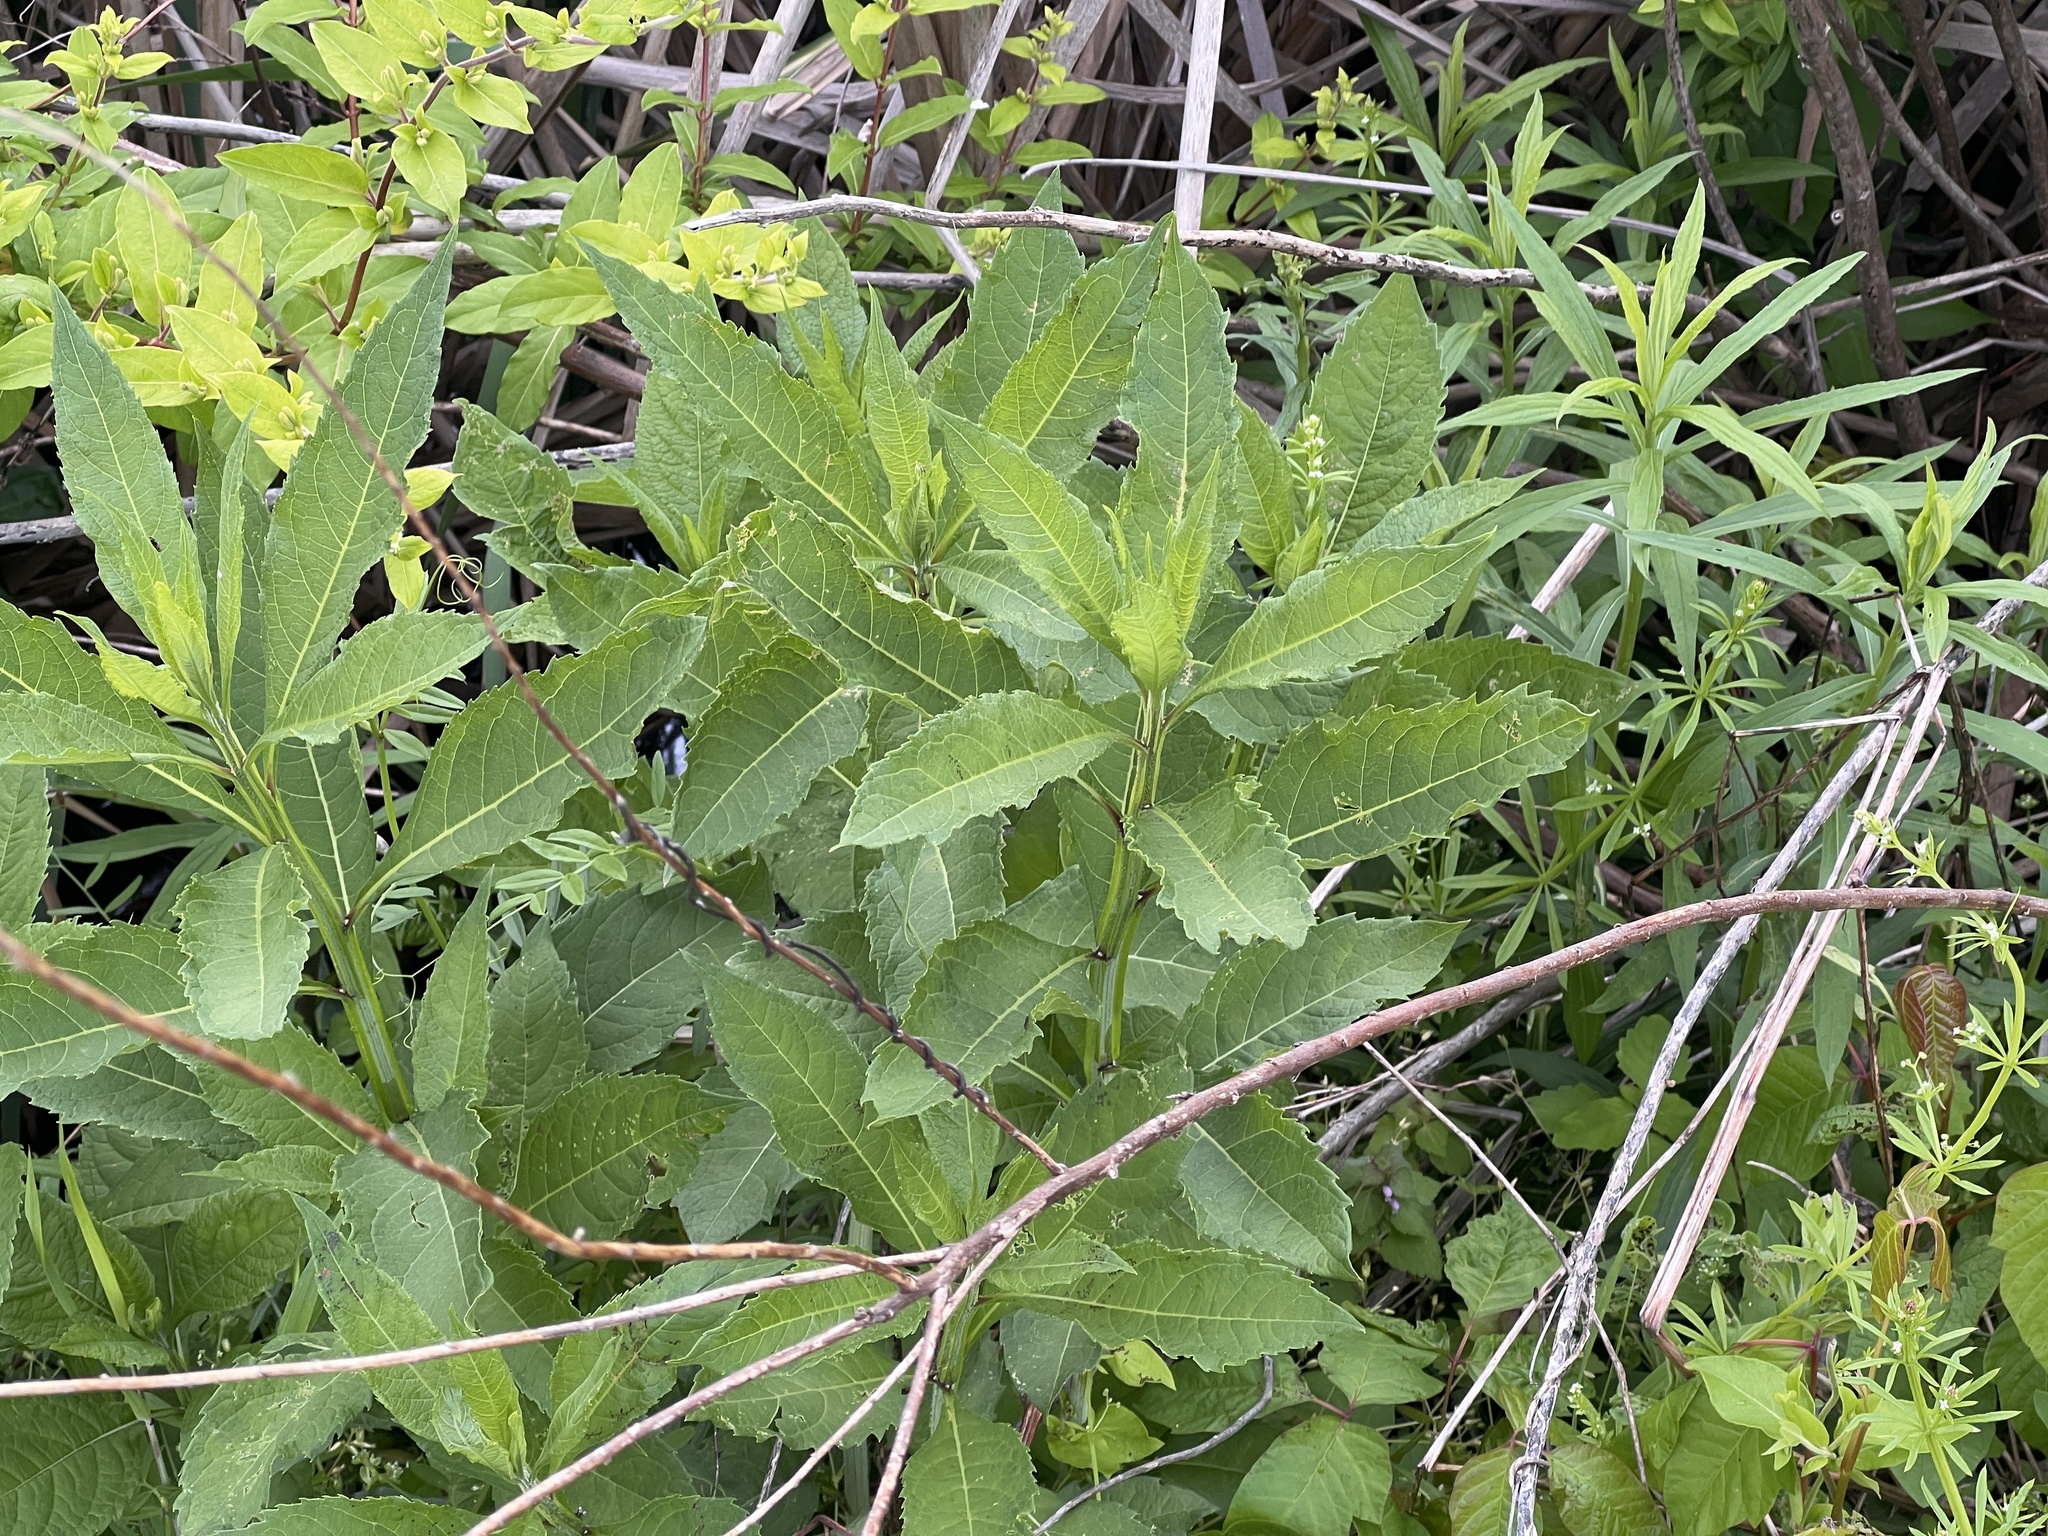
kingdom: Plantae
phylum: Tracheophyta
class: Magnoliopsida
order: Asterales
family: Asteraceae
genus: Verbesina
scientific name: Verbesina alternifolia
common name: Wingstem
